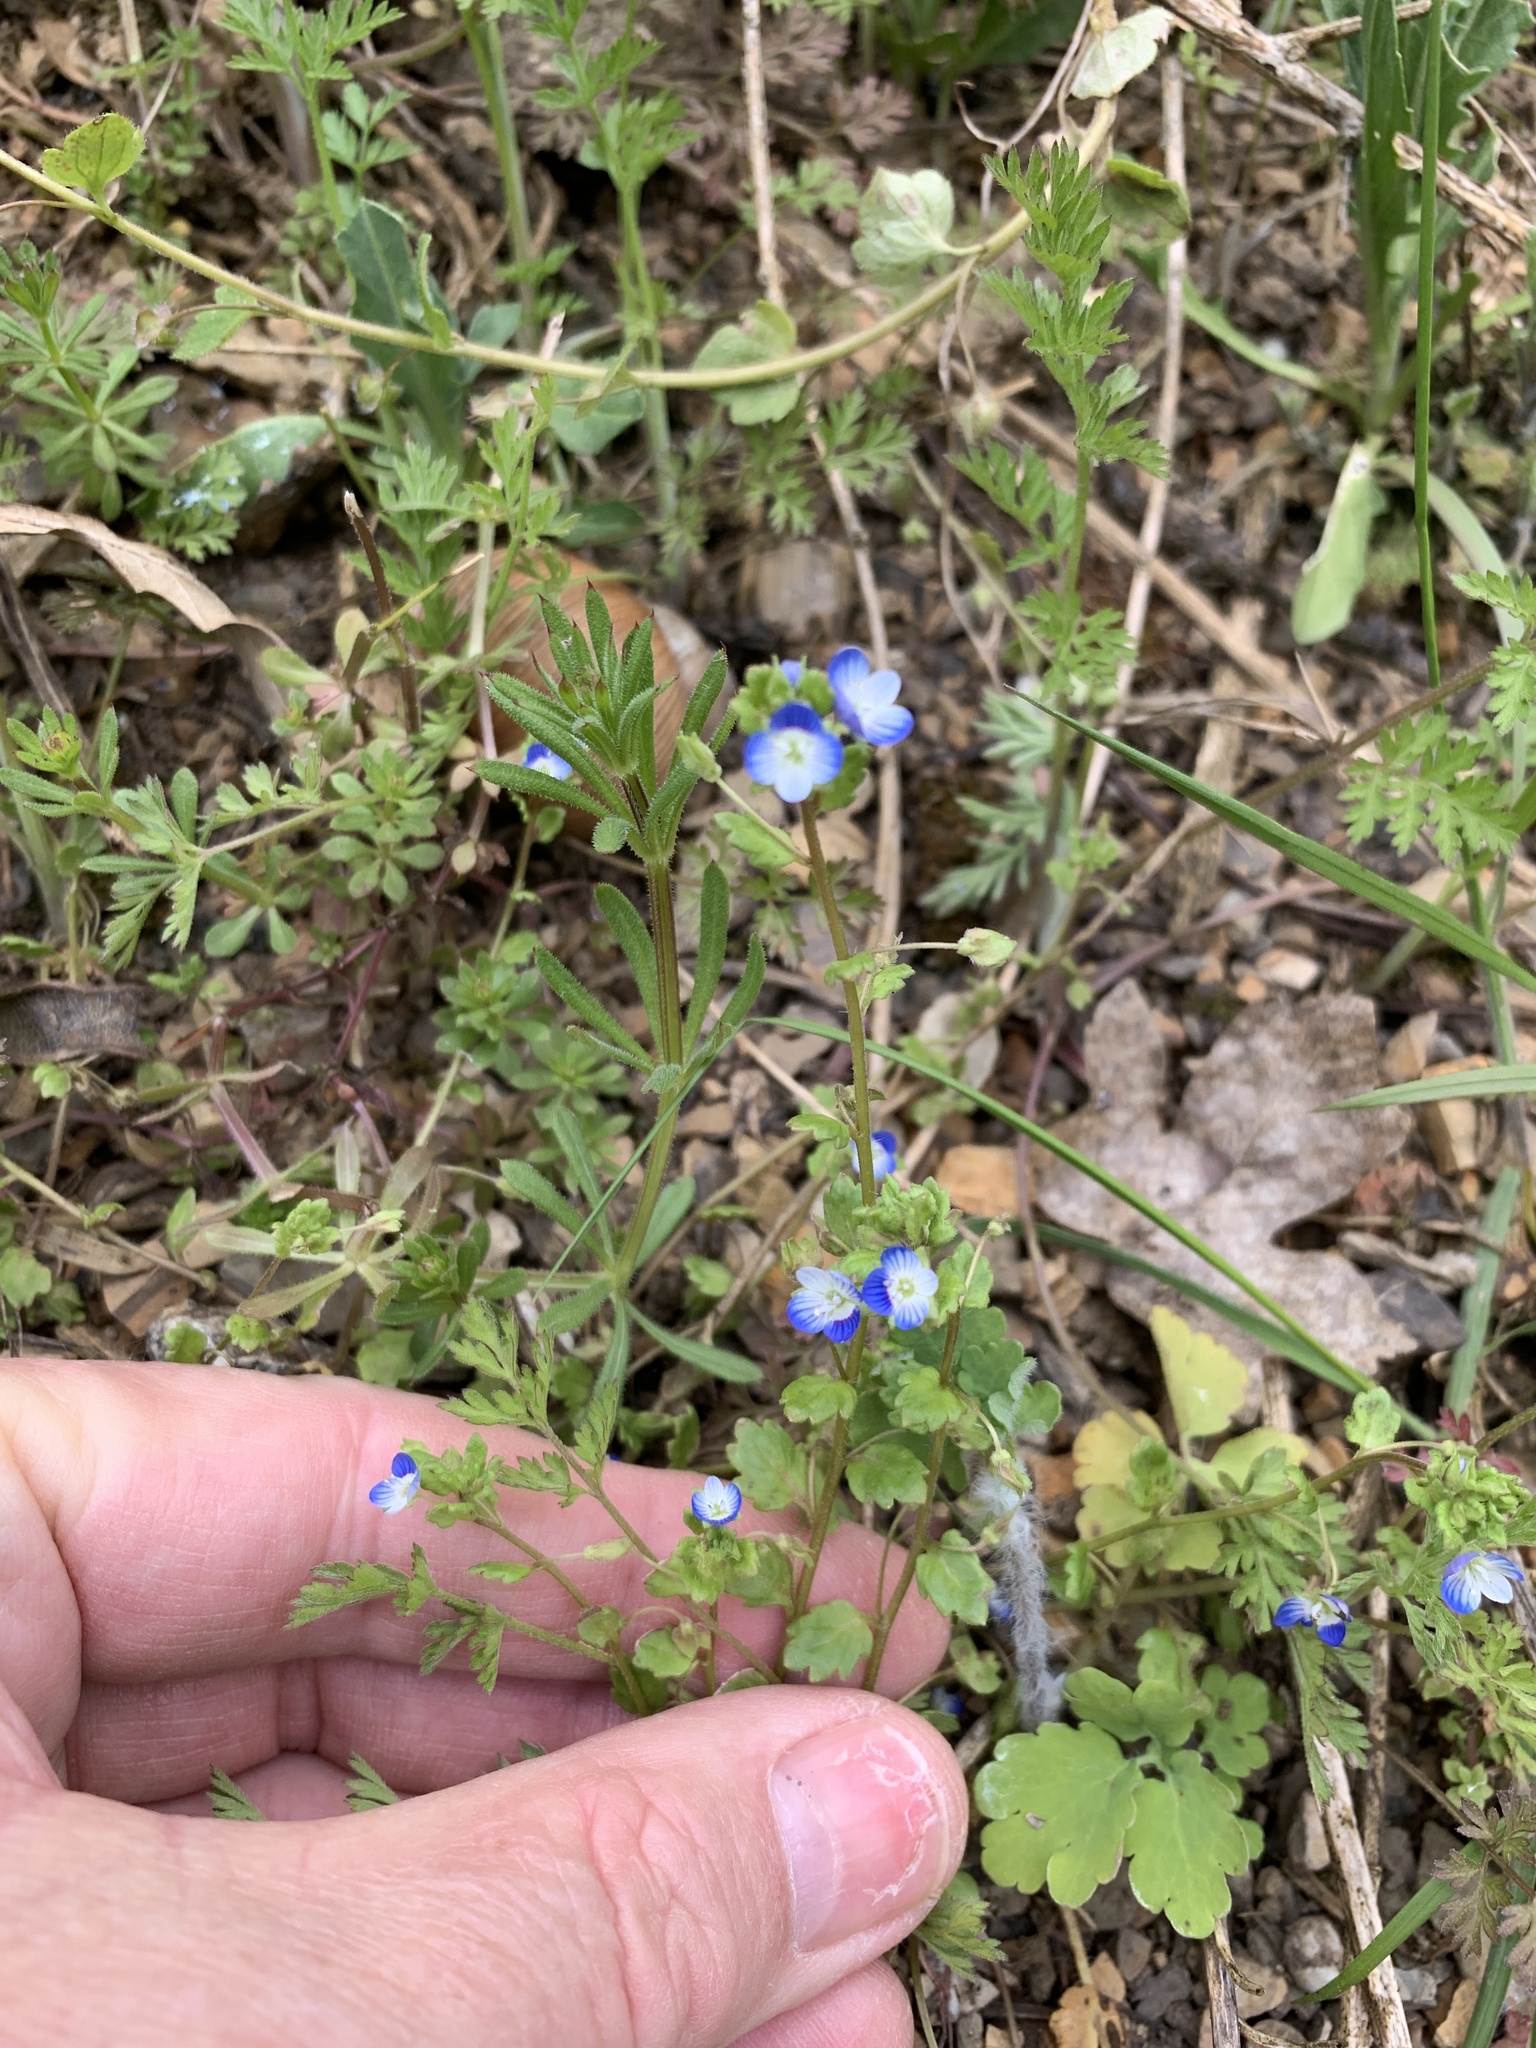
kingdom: Plantae
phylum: Tracheophyta
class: Magnoliopsida
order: Lamiales
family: Plantaginaceae
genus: Veronica
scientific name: Veronica polita
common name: Grey field-speedwell
